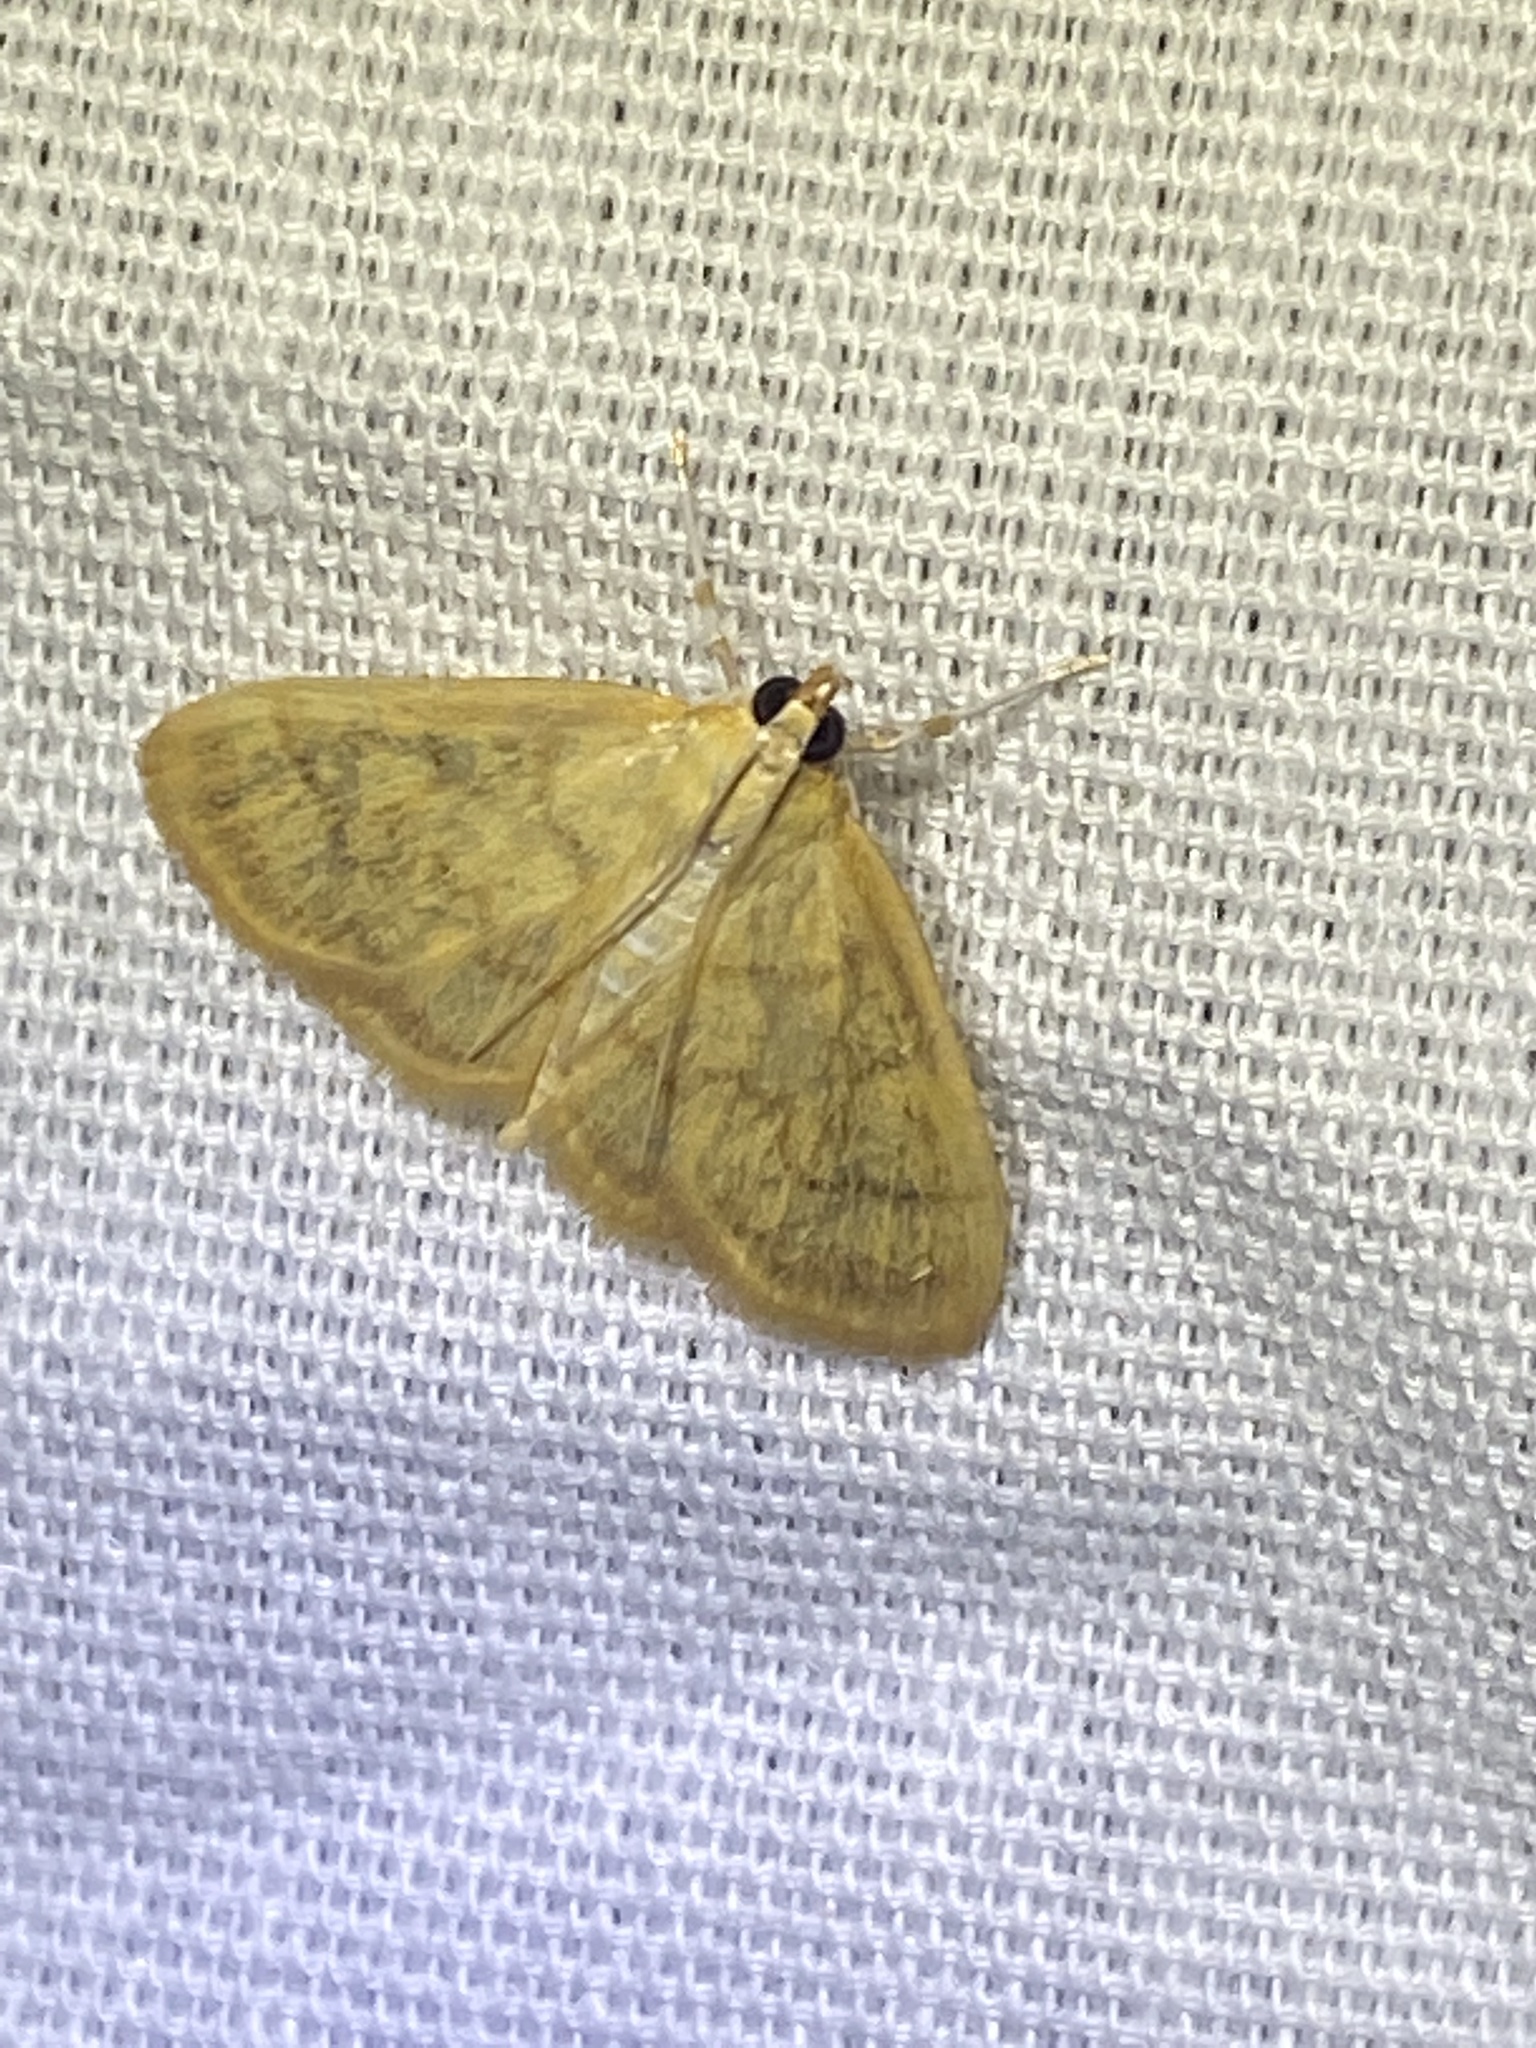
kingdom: Animalia
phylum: Arthropoda
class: Insecta
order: Lepidoptera
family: Crambidae
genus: Crocidophora
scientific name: Crocidophora tuberculalis
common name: Pale-winged crocidiphora moth
